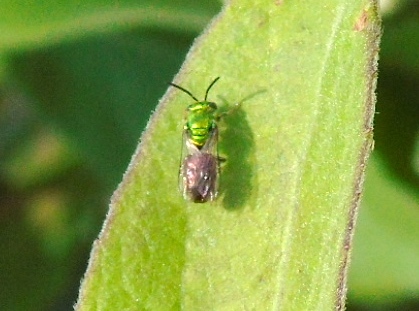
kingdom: Animalia
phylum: Arthropoda
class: Insecta
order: Hymenoptera
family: Halictidae
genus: Augochloropsis
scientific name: Augochloropsis
